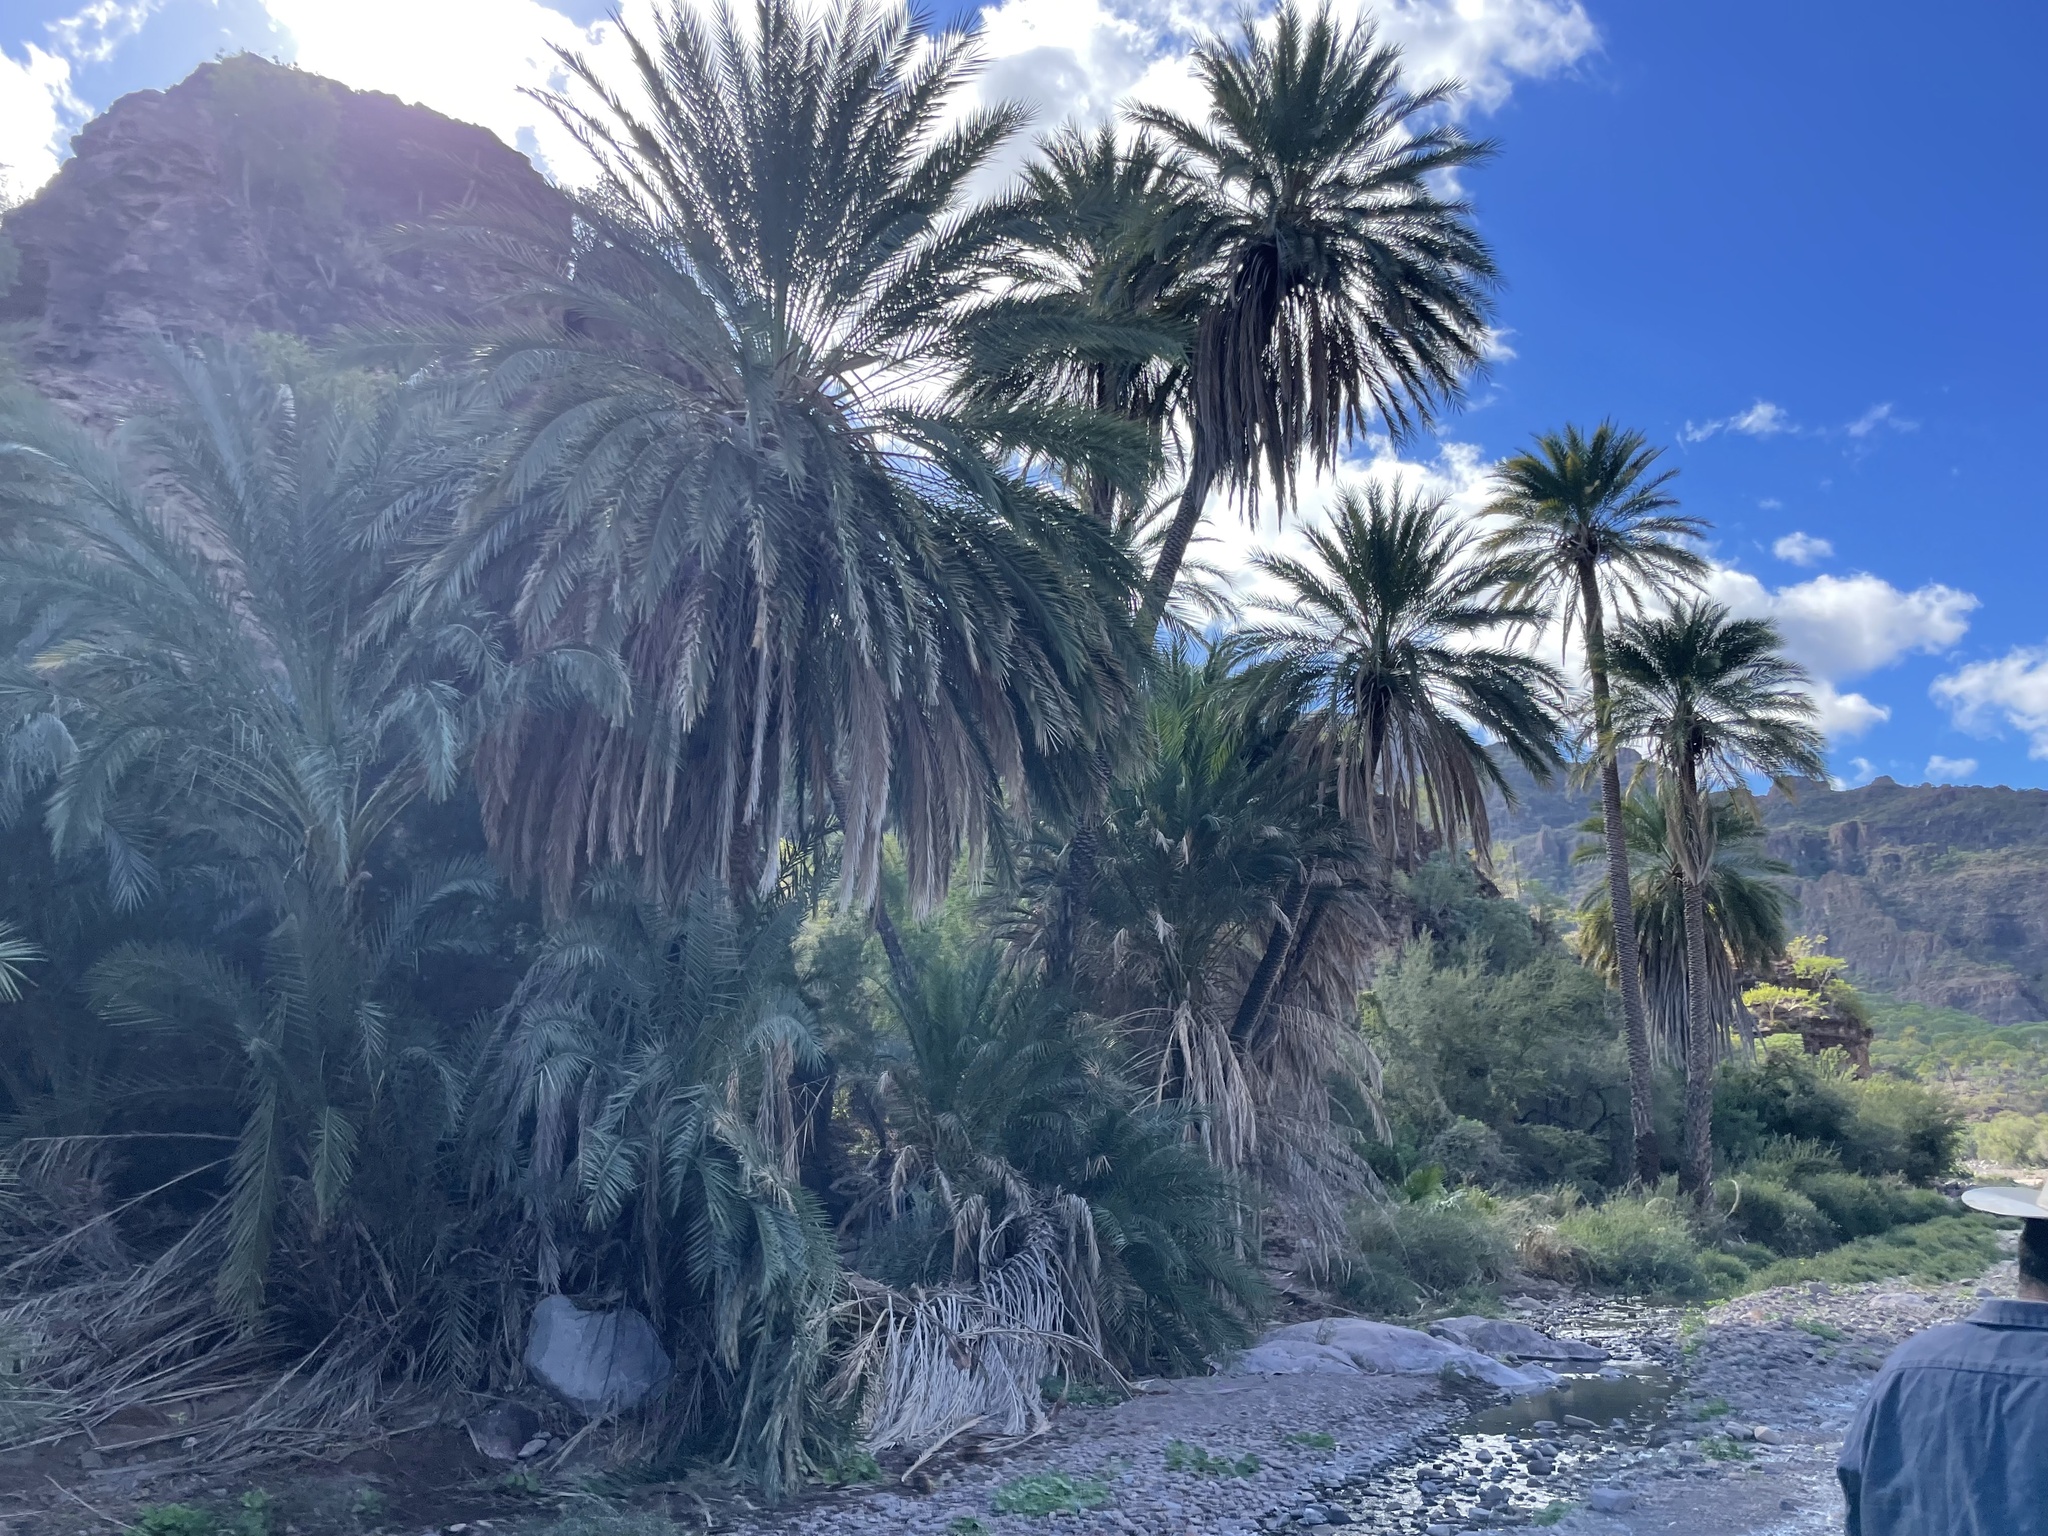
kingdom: Plantae
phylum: Tracheophyta
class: Liliopsida
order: Arecales
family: Arecaceae
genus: Phoenix
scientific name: Phoenix dactylifera
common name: Date palm
